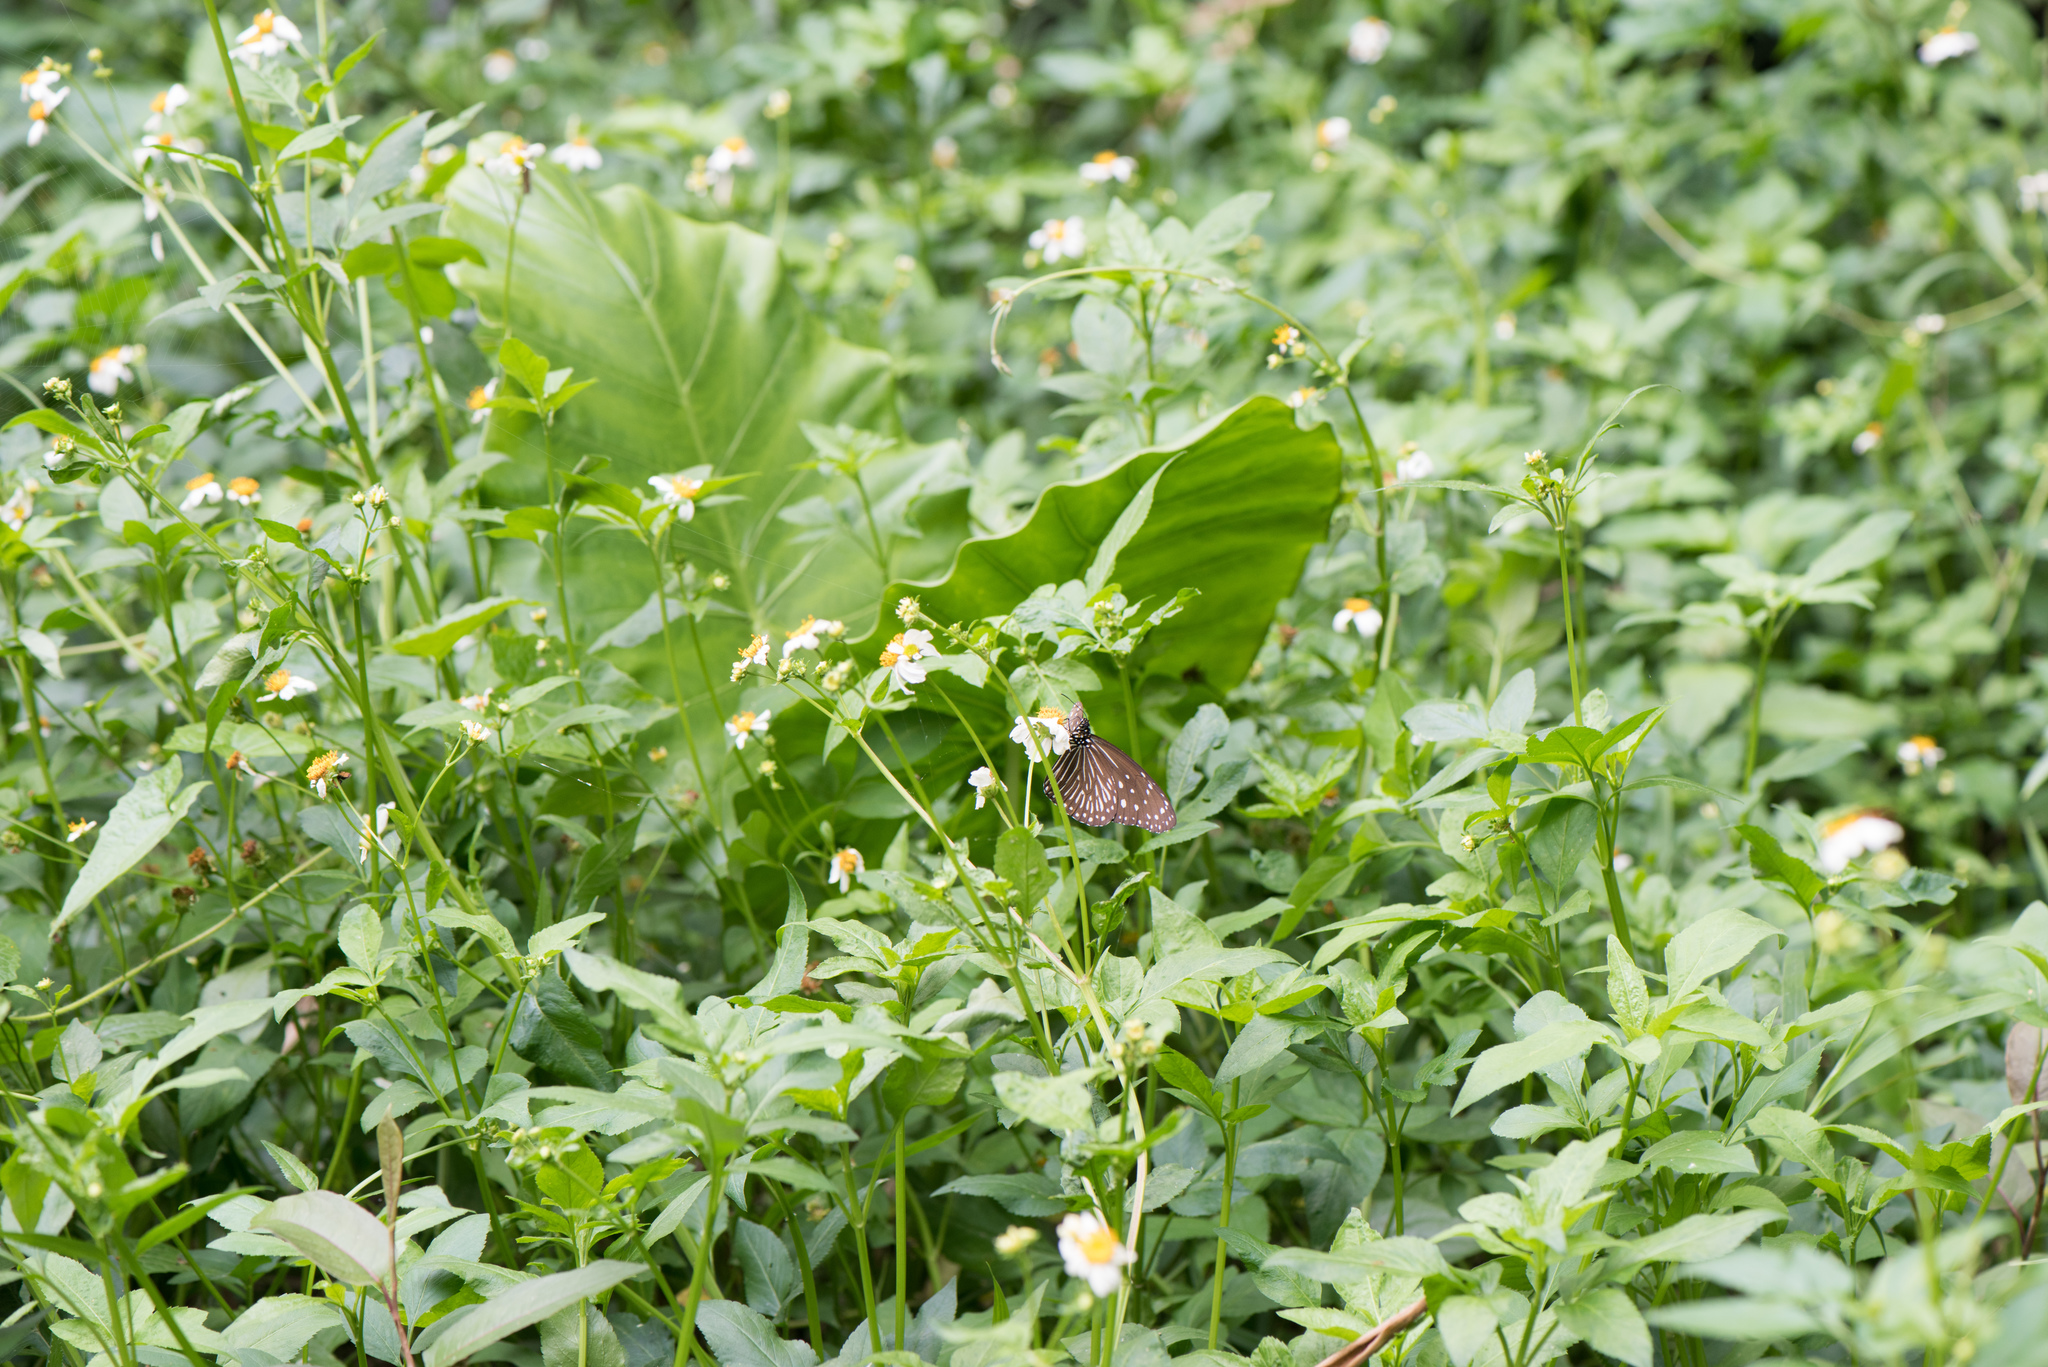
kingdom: Animalia
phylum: Arthropoda
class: Insecta
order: Lepidoptera
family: Nymphalidae
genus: Euploea
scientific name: Euploea mulciber
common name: Striped blue crow butterfly
